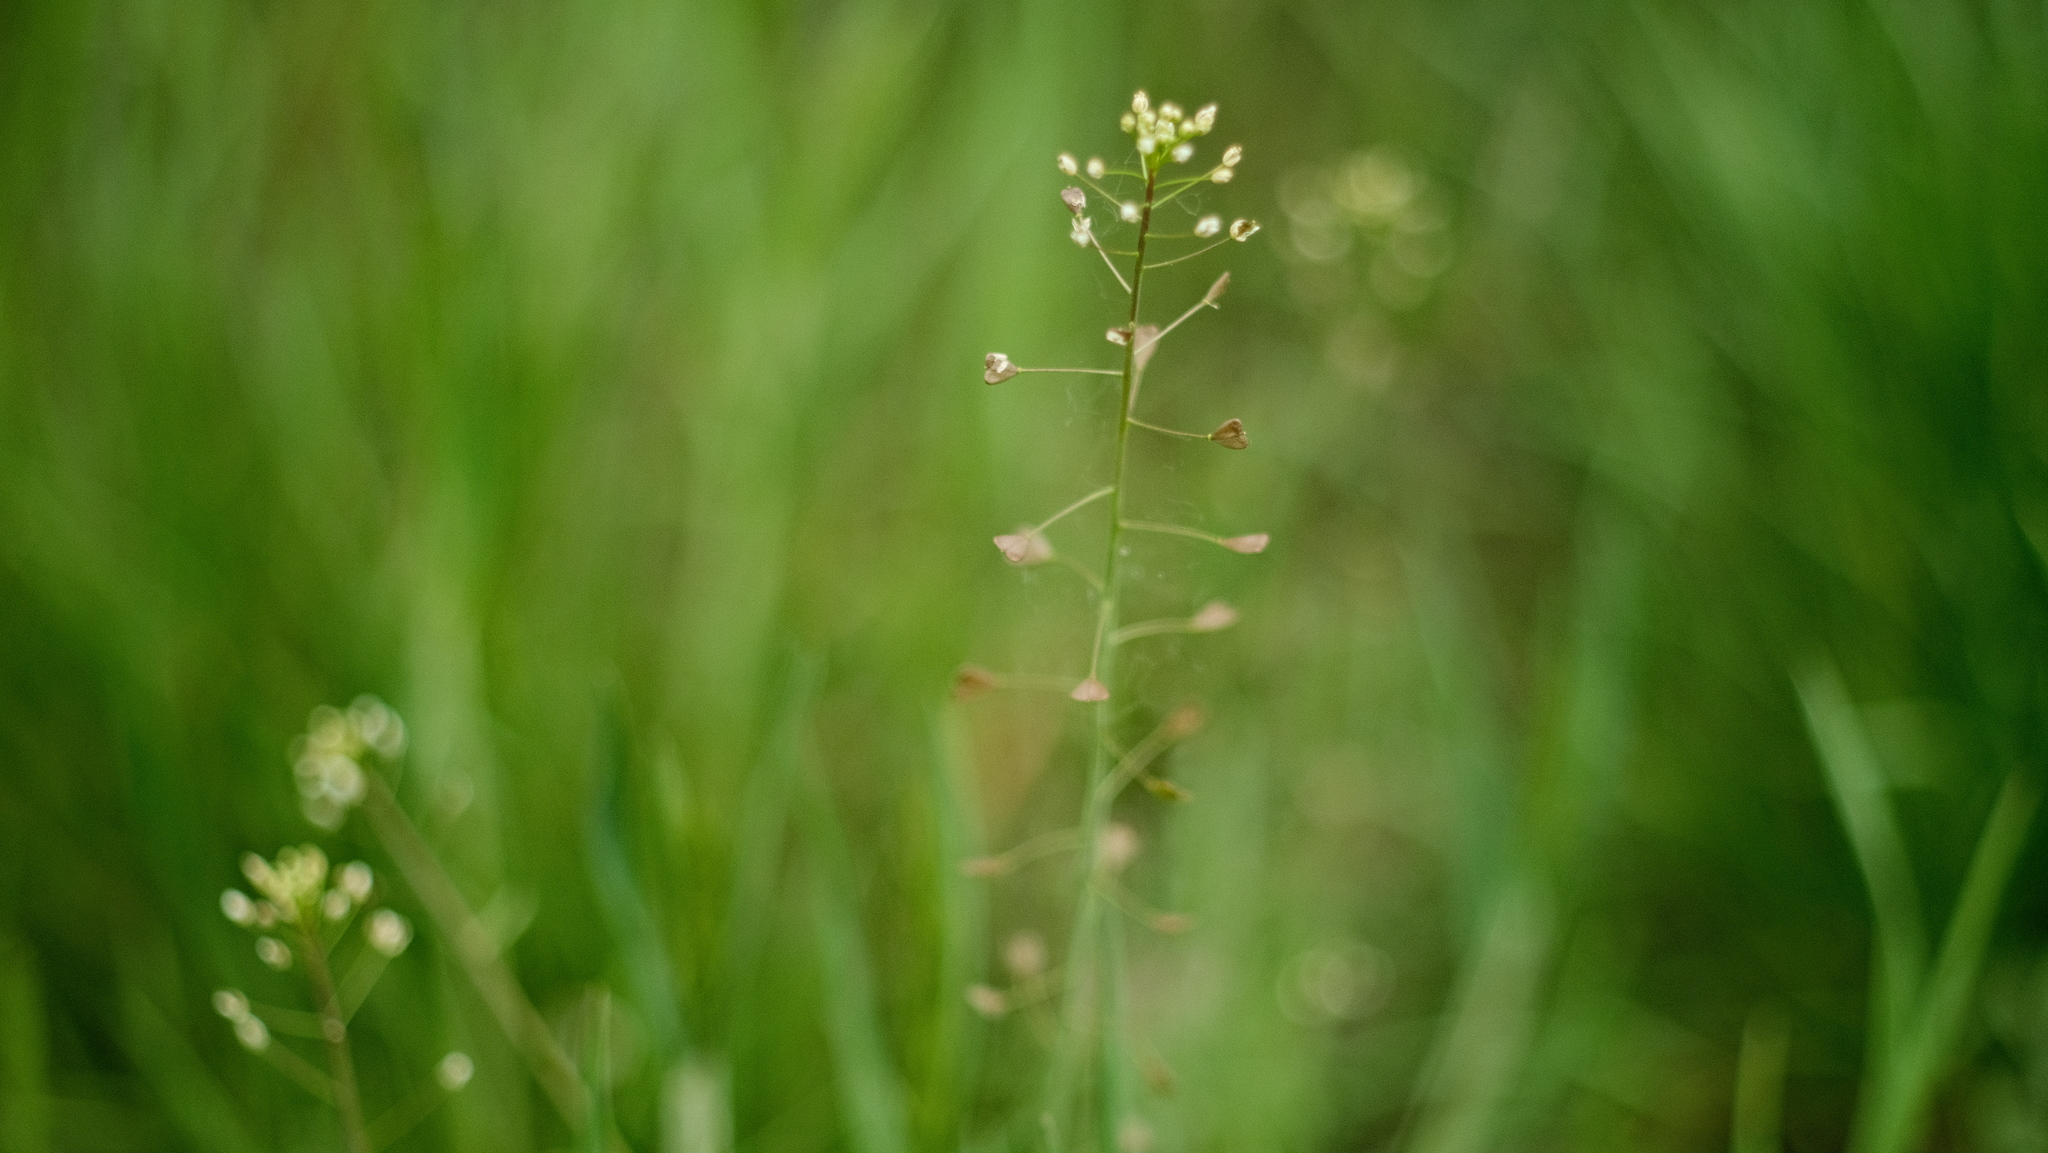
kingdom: Plantae
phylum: Tracheophyta
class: Magnoliopsida
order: Brassicales
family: Brassicaceae
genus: Capsella
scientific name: Capsella bursa-pastoris
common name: Shepherd's purse
